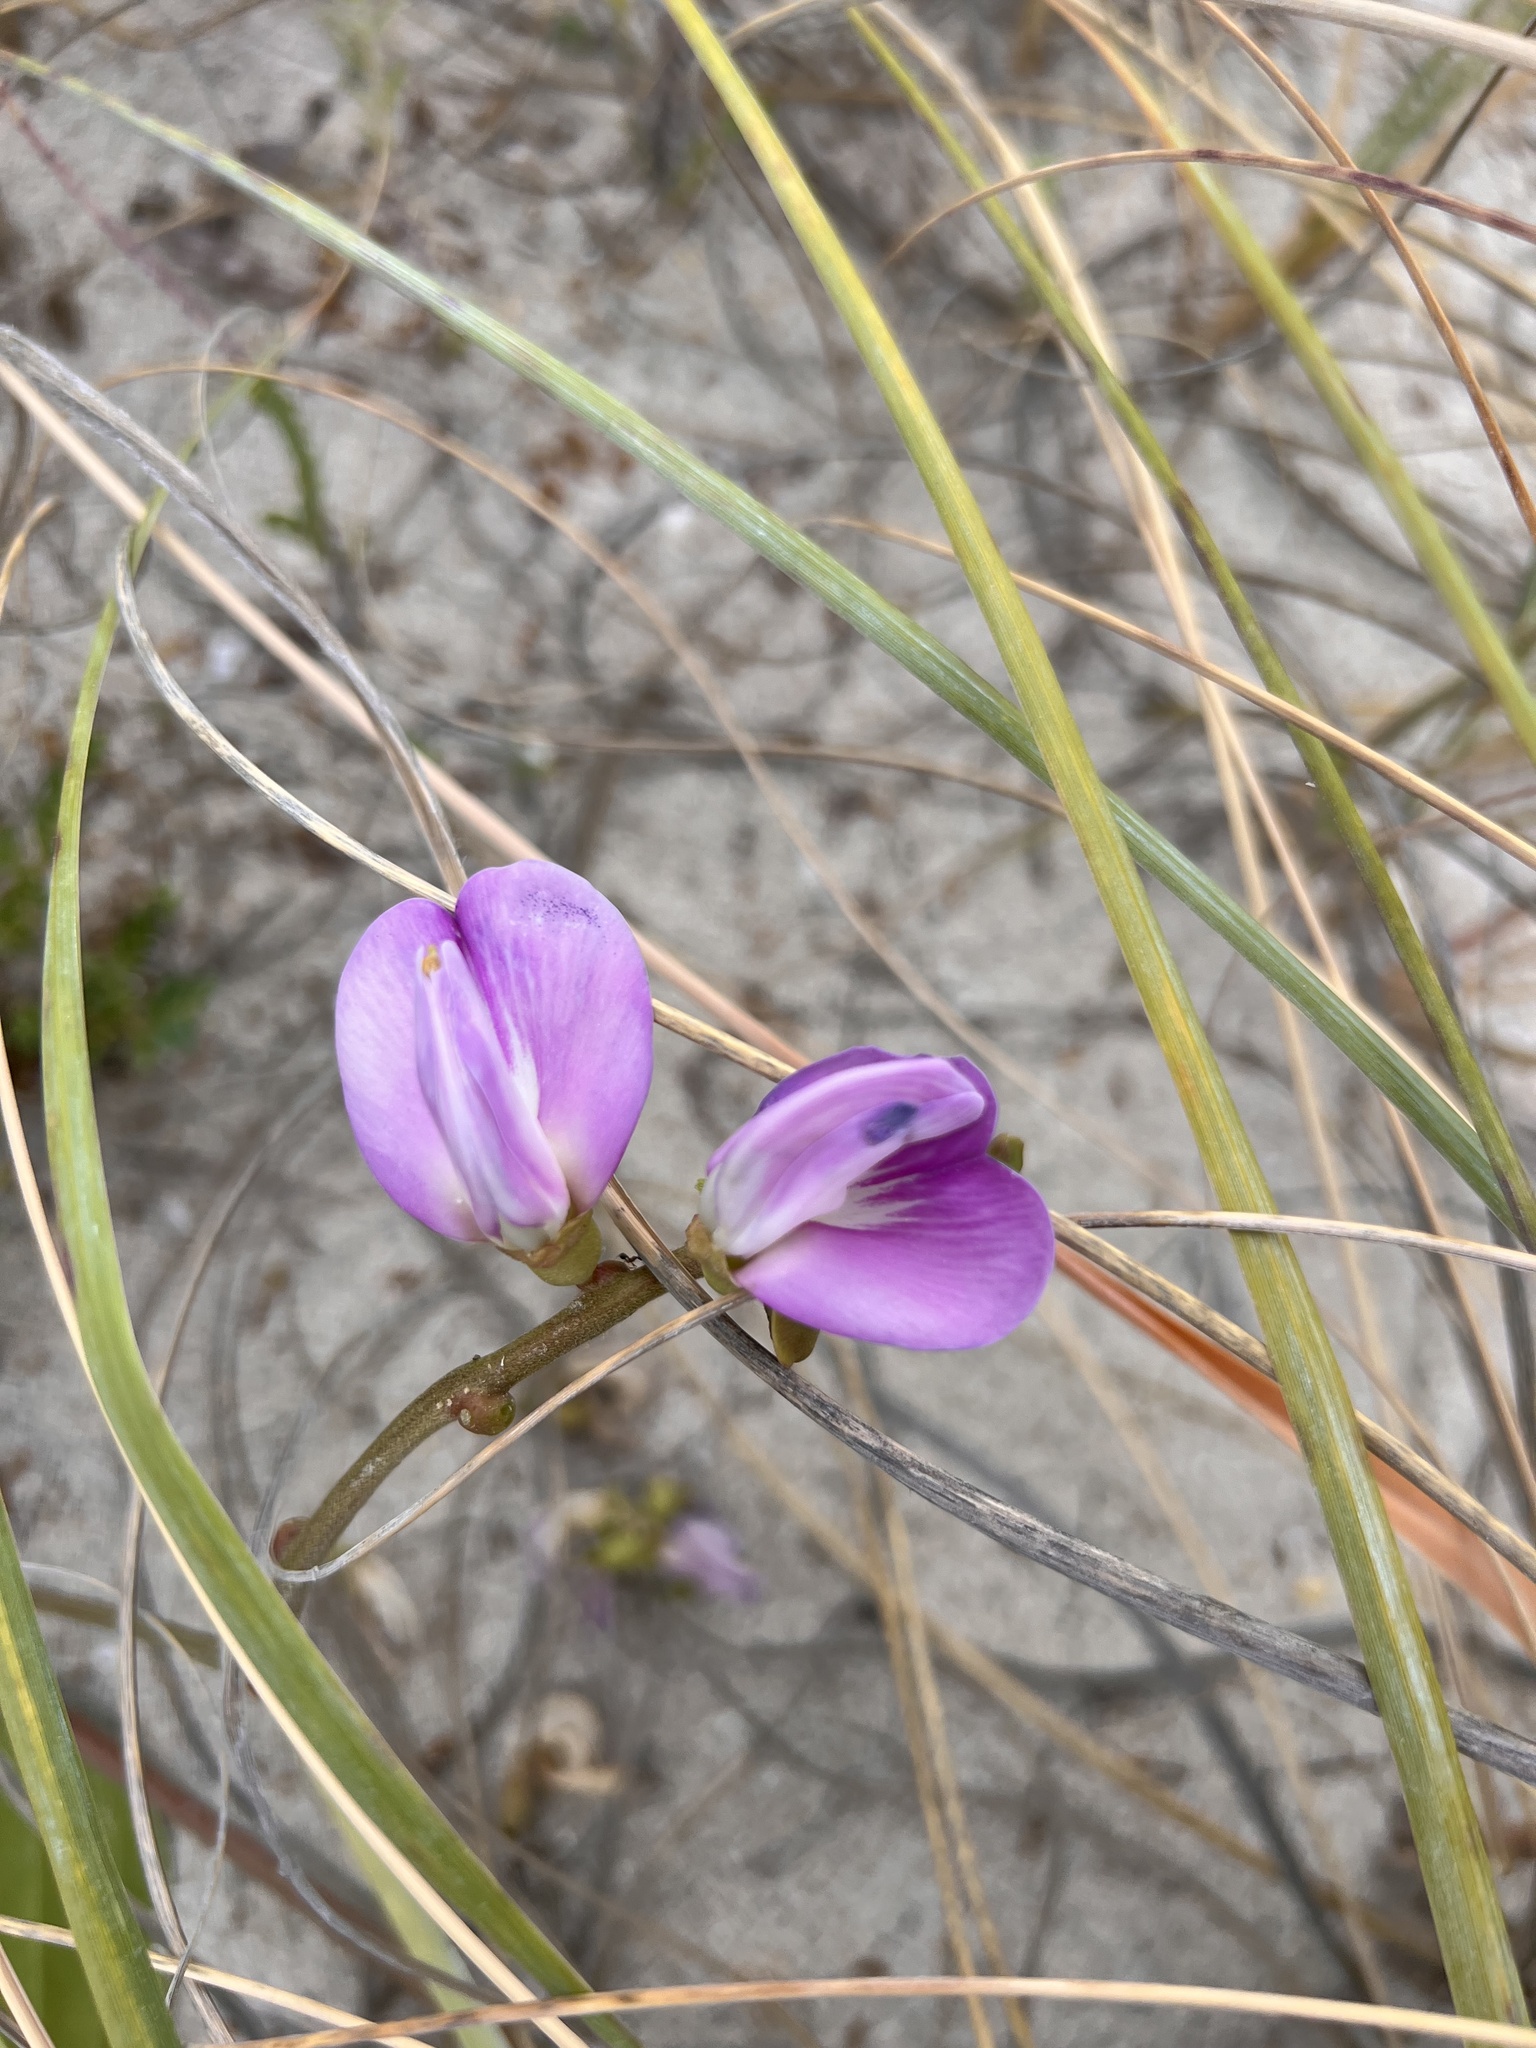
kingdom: Plantae
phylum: Tracheophyta
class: Magnoliopsida
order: Fabales
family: Fabaceae
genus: Canavalia
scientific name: Canavalia rosea
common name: Beach-bean
